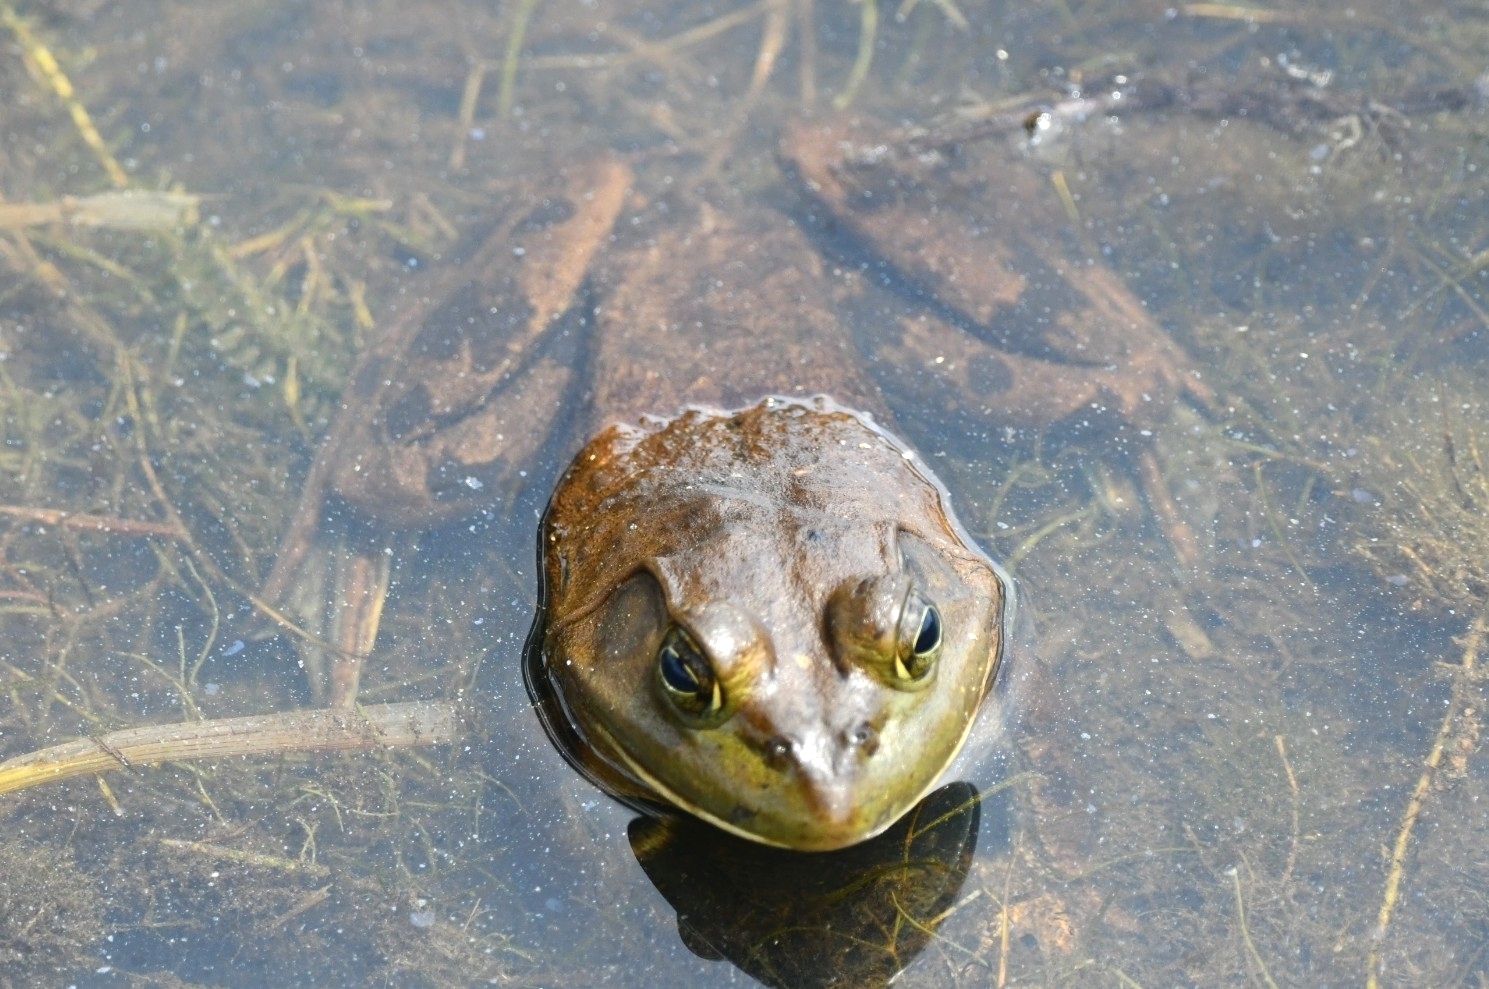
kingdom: Animalia
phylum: Chordata
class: Amphibia
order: Anura
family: Ranidae
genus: Lithobates
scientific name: Lithobates catesbeianus
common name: American bullfrog
